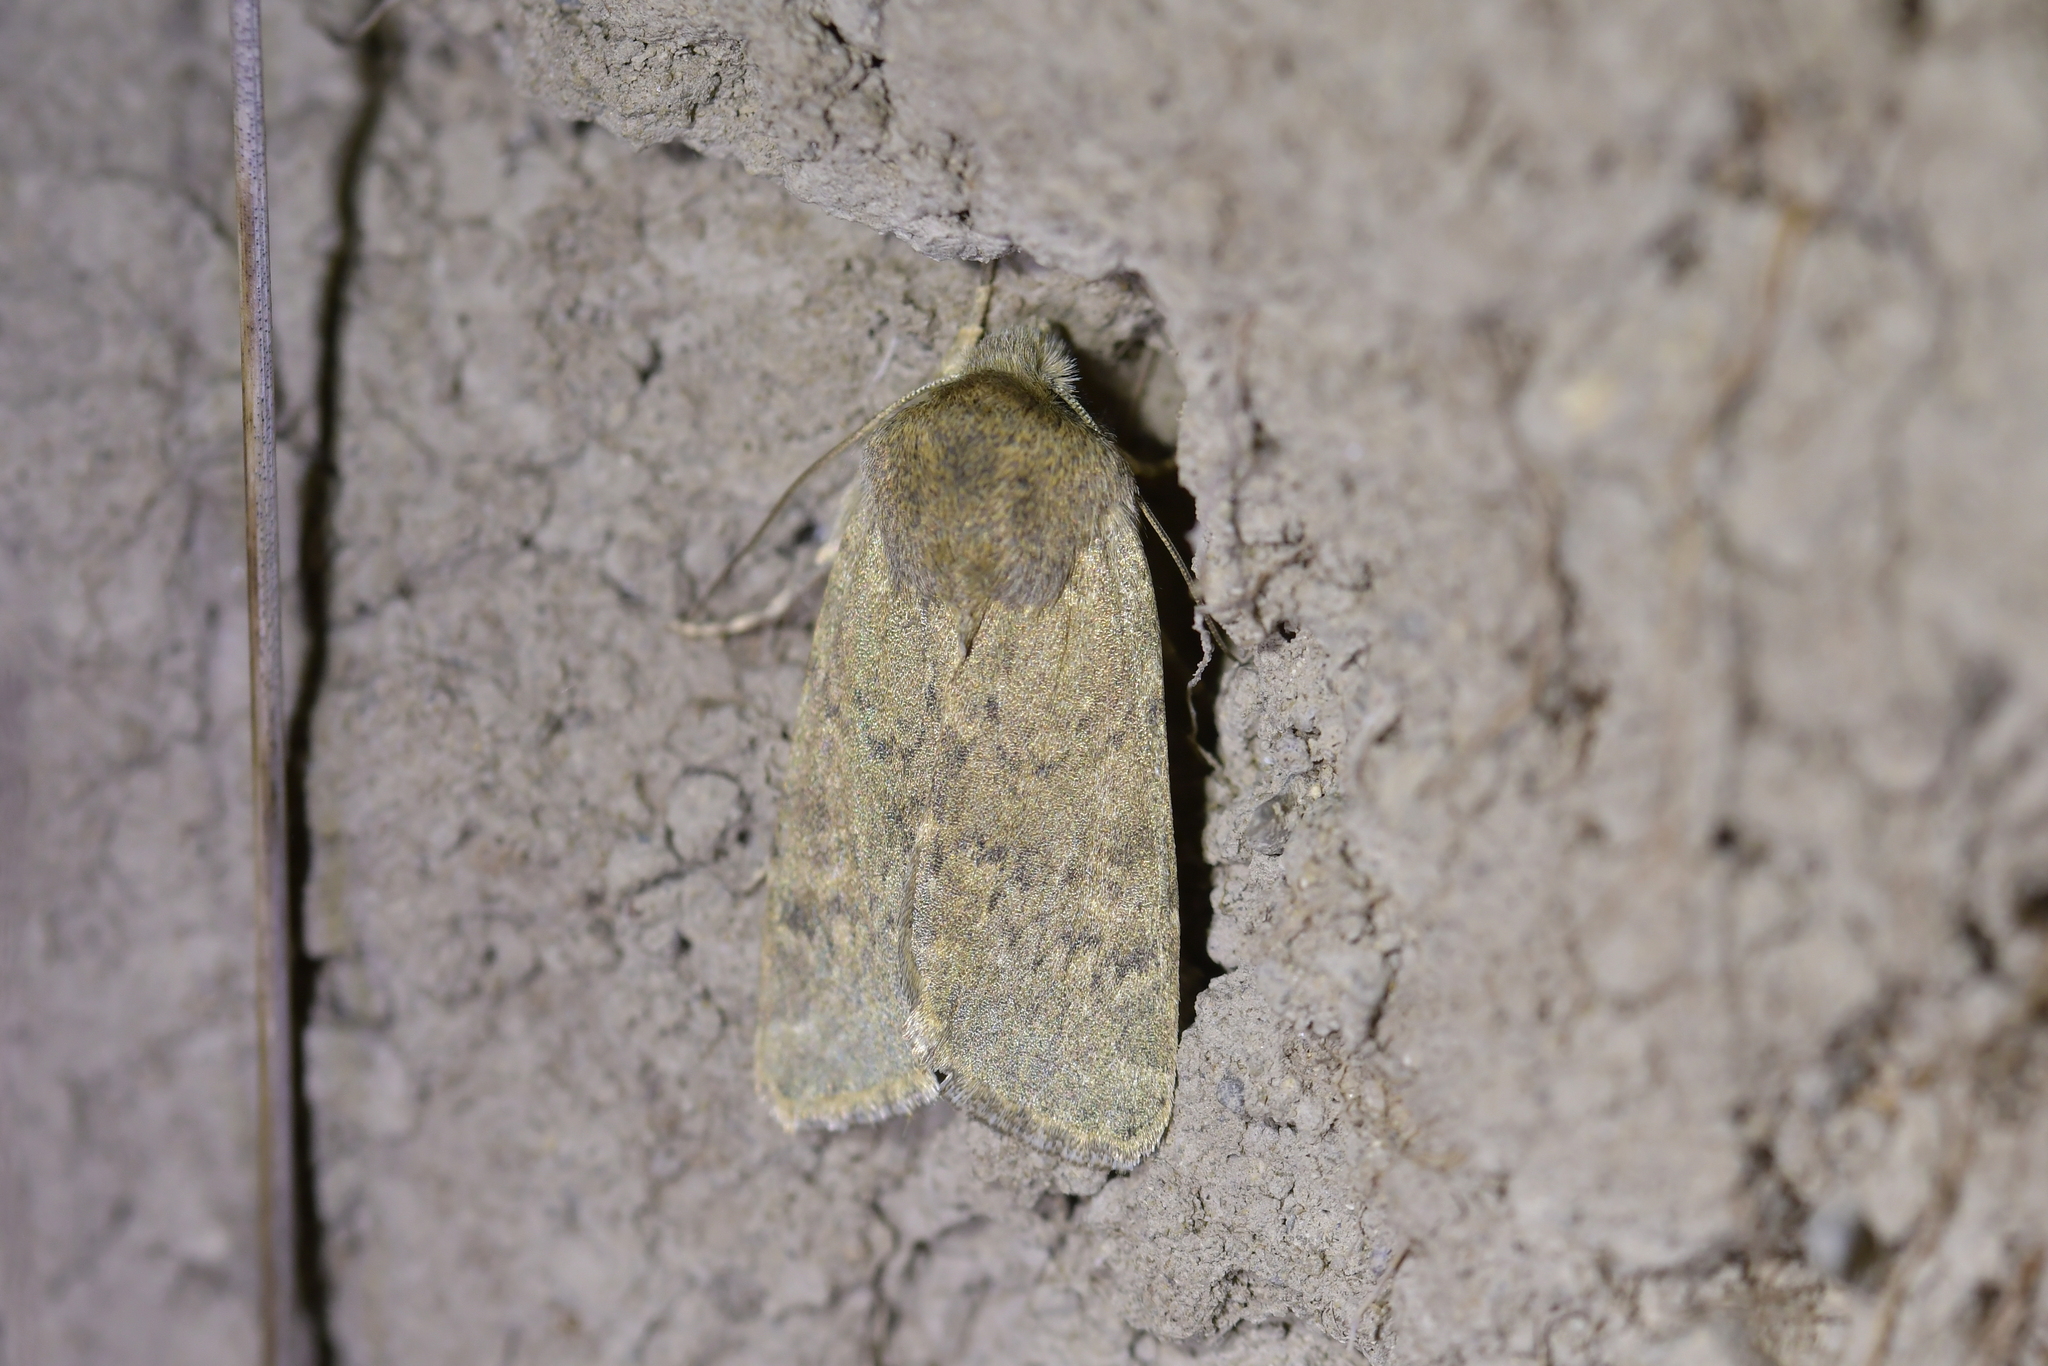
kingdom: Animalia
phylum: Arthropoda
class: Insecta
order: Lepidoptera
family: Noctuidae
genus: Physetica
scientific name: Physetica caerulea
